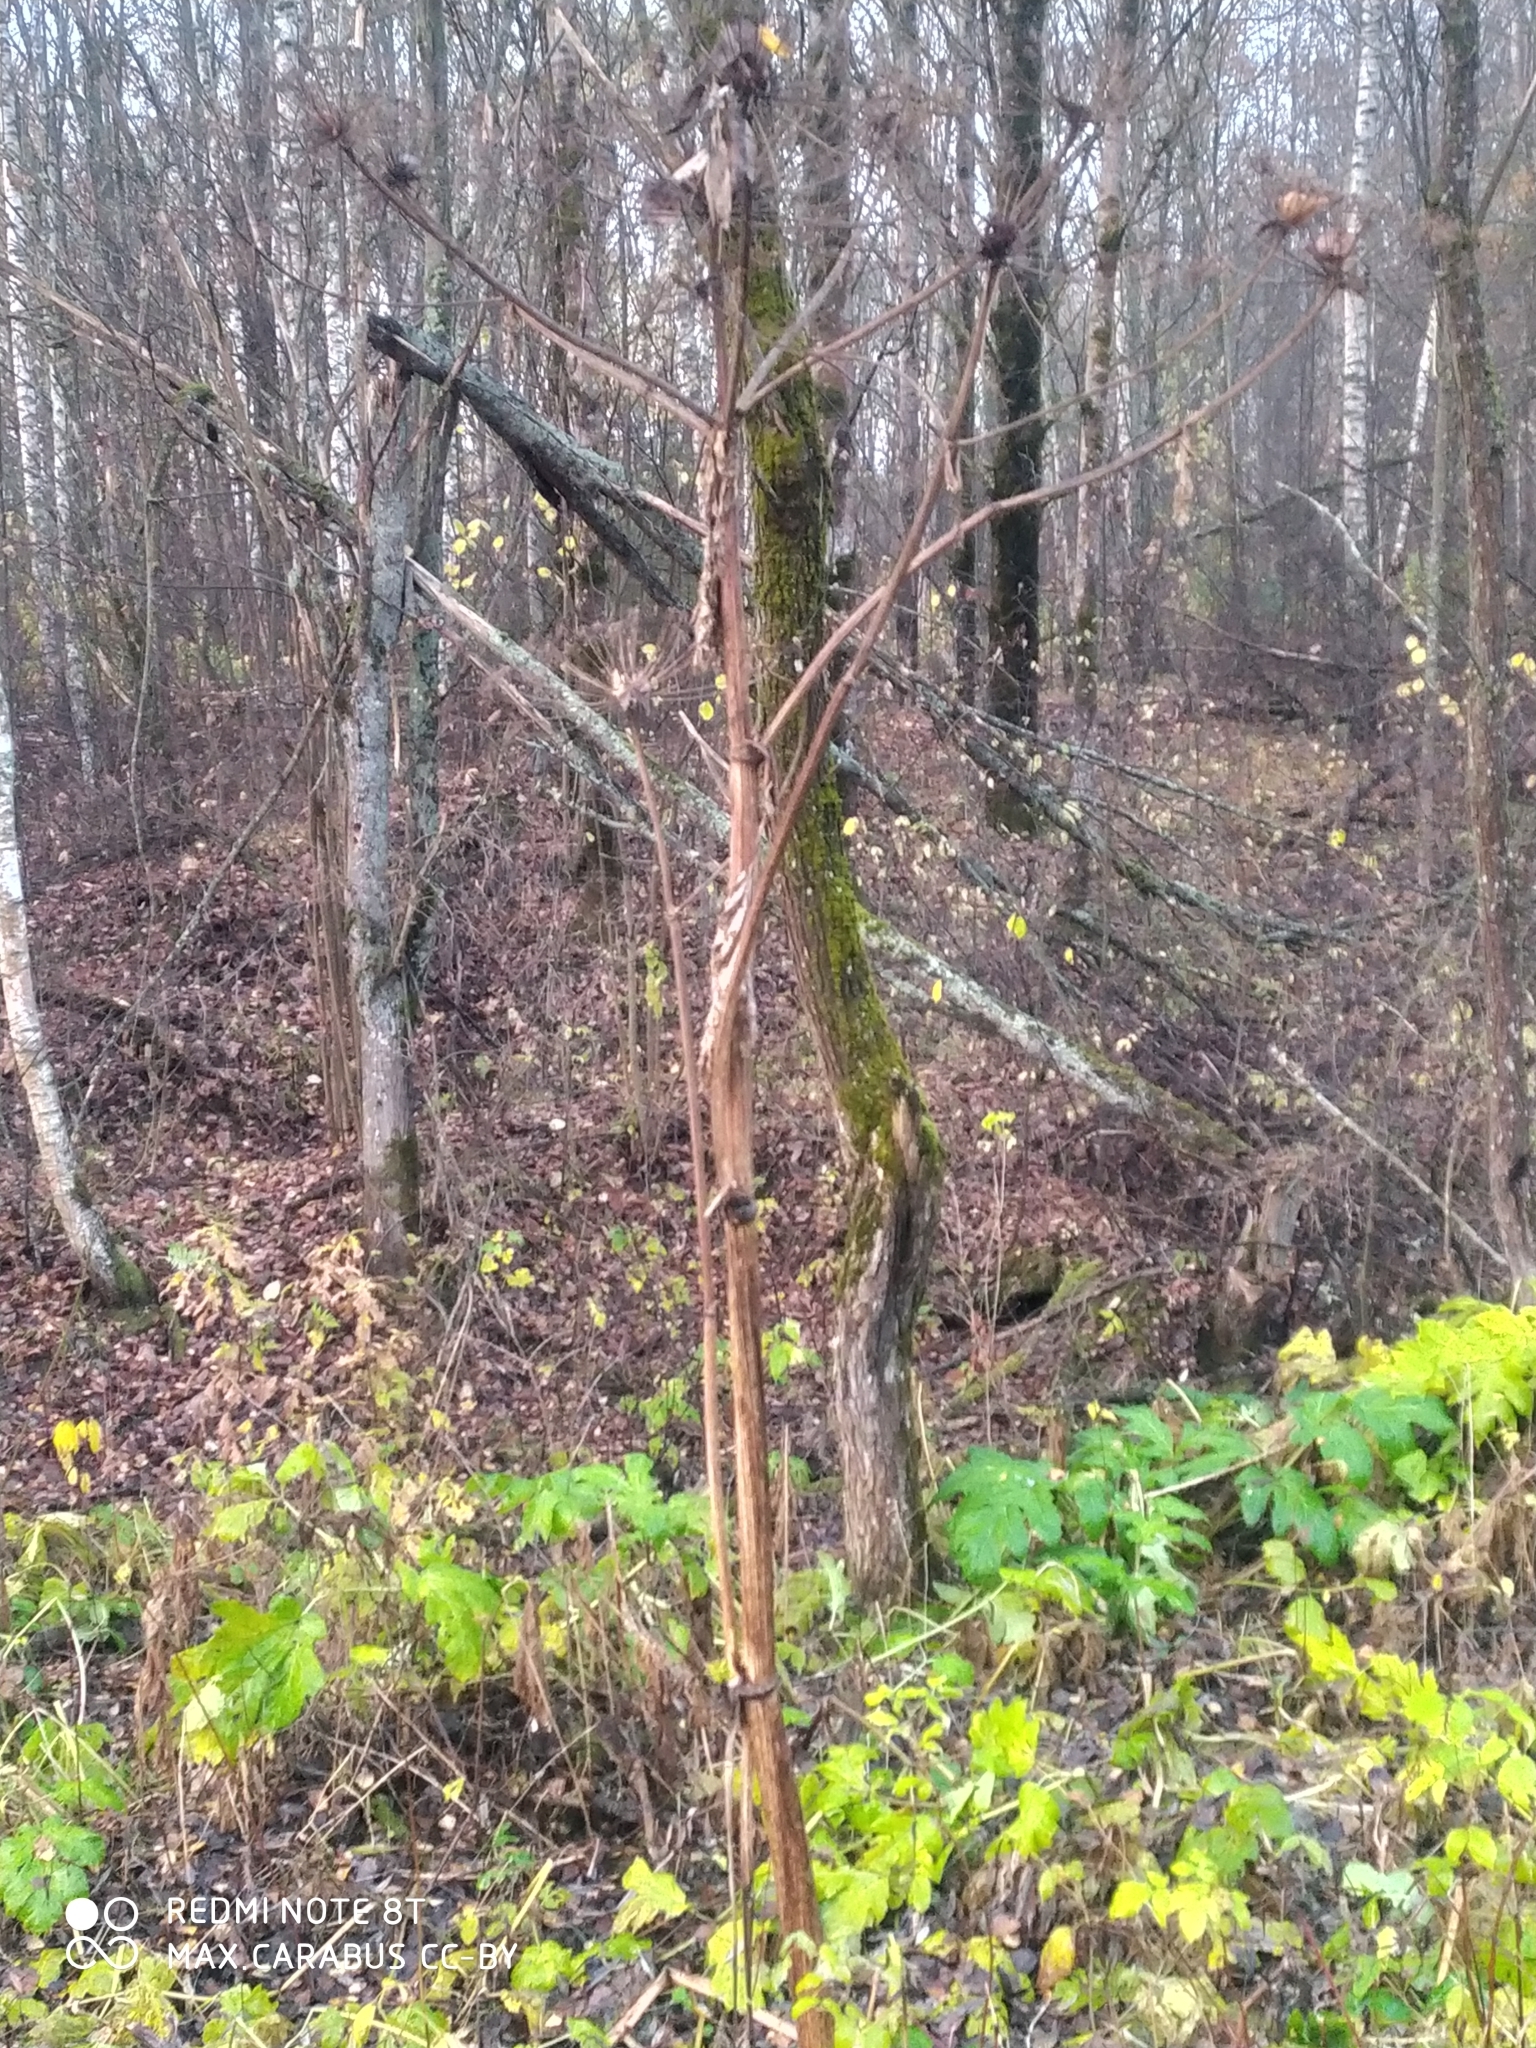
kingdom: Plantae
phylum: Tracheophyta
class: Magnoliopsida
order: Apiales
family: Apiaceae
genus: Heracleum
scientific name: Heracleum sosnowskyi
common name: Sosnowsky's hogweed
